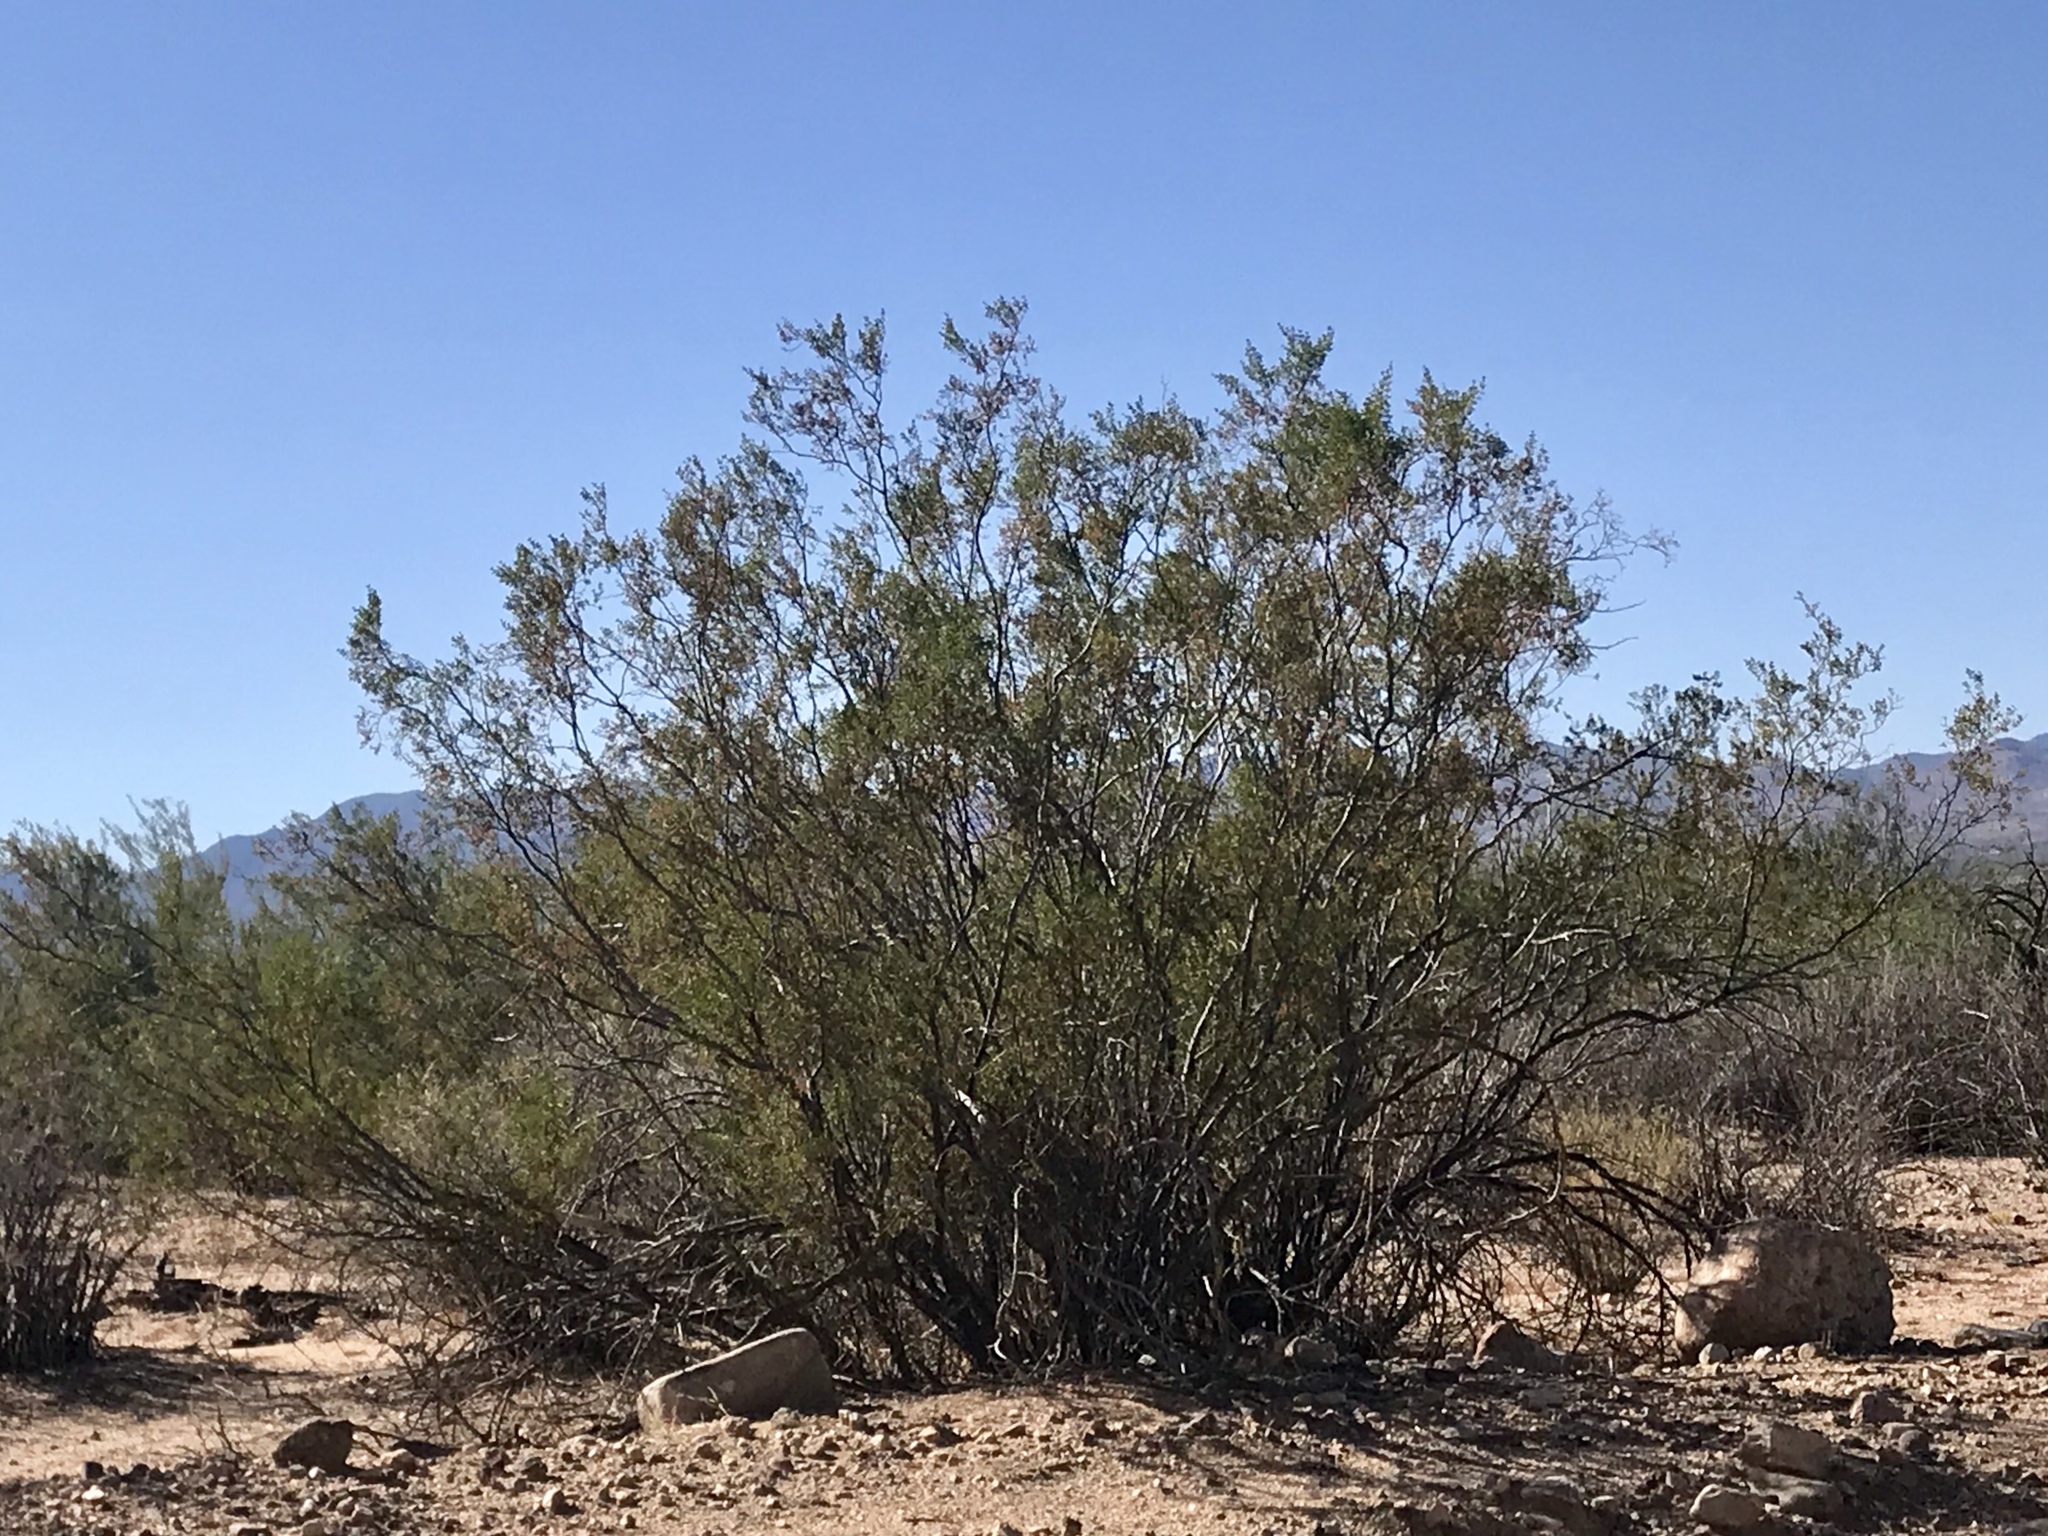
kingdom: Plantae
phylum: Tracheophyta
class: Magnoliopsida
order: Zygophyllales
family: Zygophyllaceae
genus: Larrea
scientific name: Larrea tridentata
